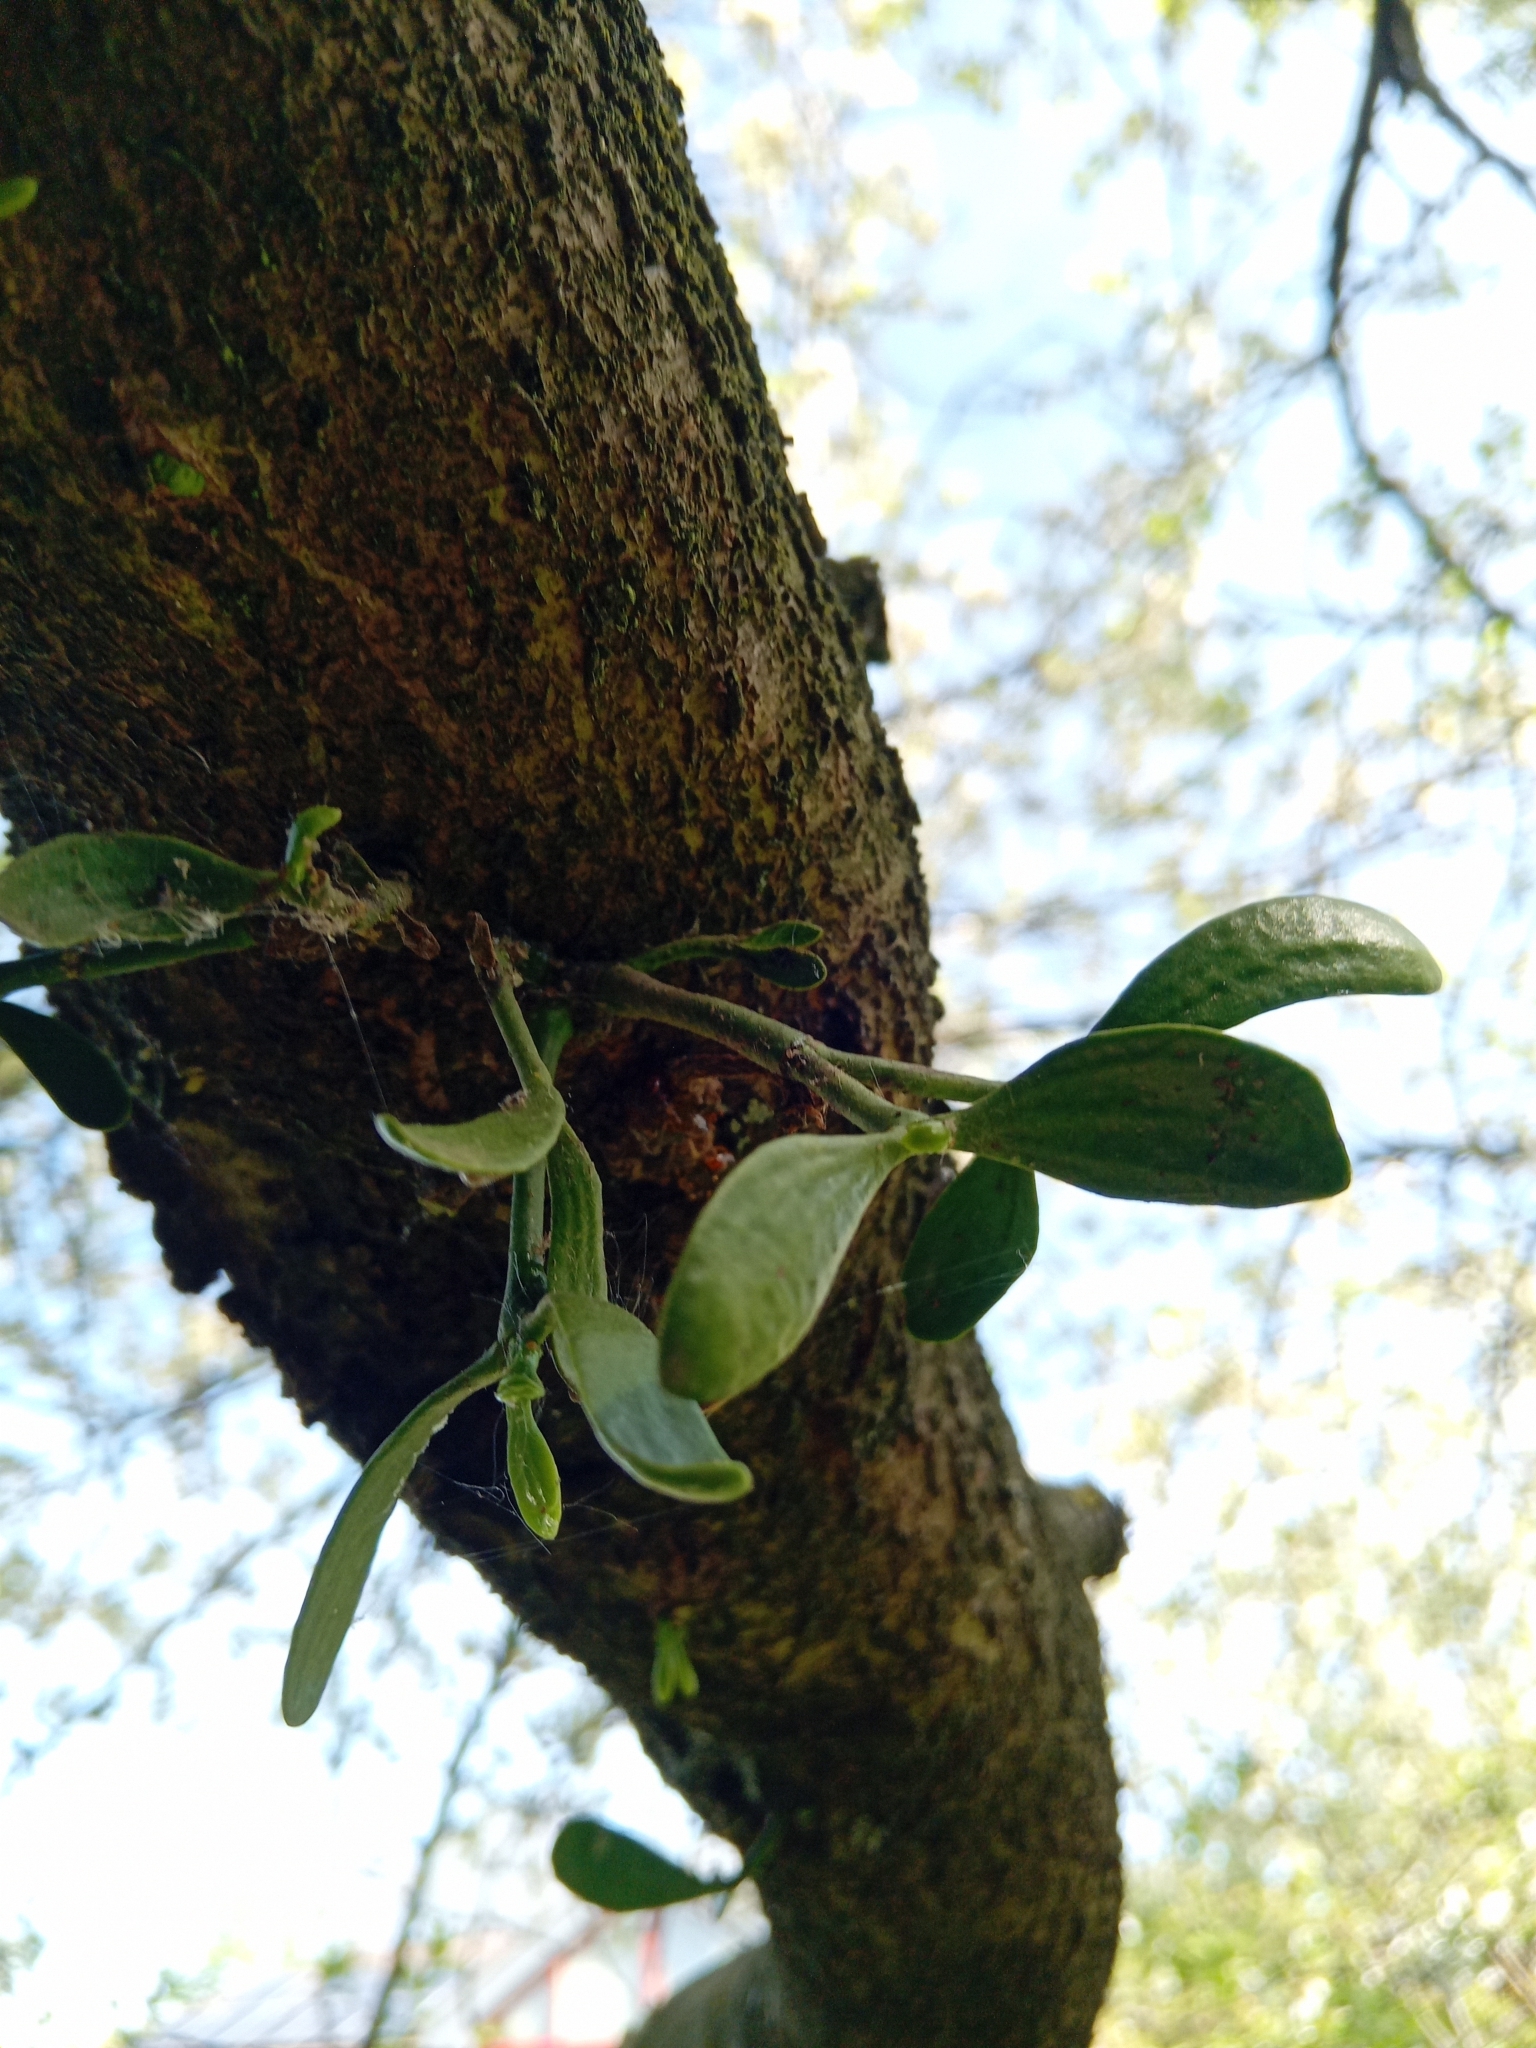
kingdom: Plantae
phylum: Tracheophyta
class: Magnoliopsida
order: Santalales
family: Viscaceae
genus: Viscum
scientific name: Viscum album
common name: Mistletoe
